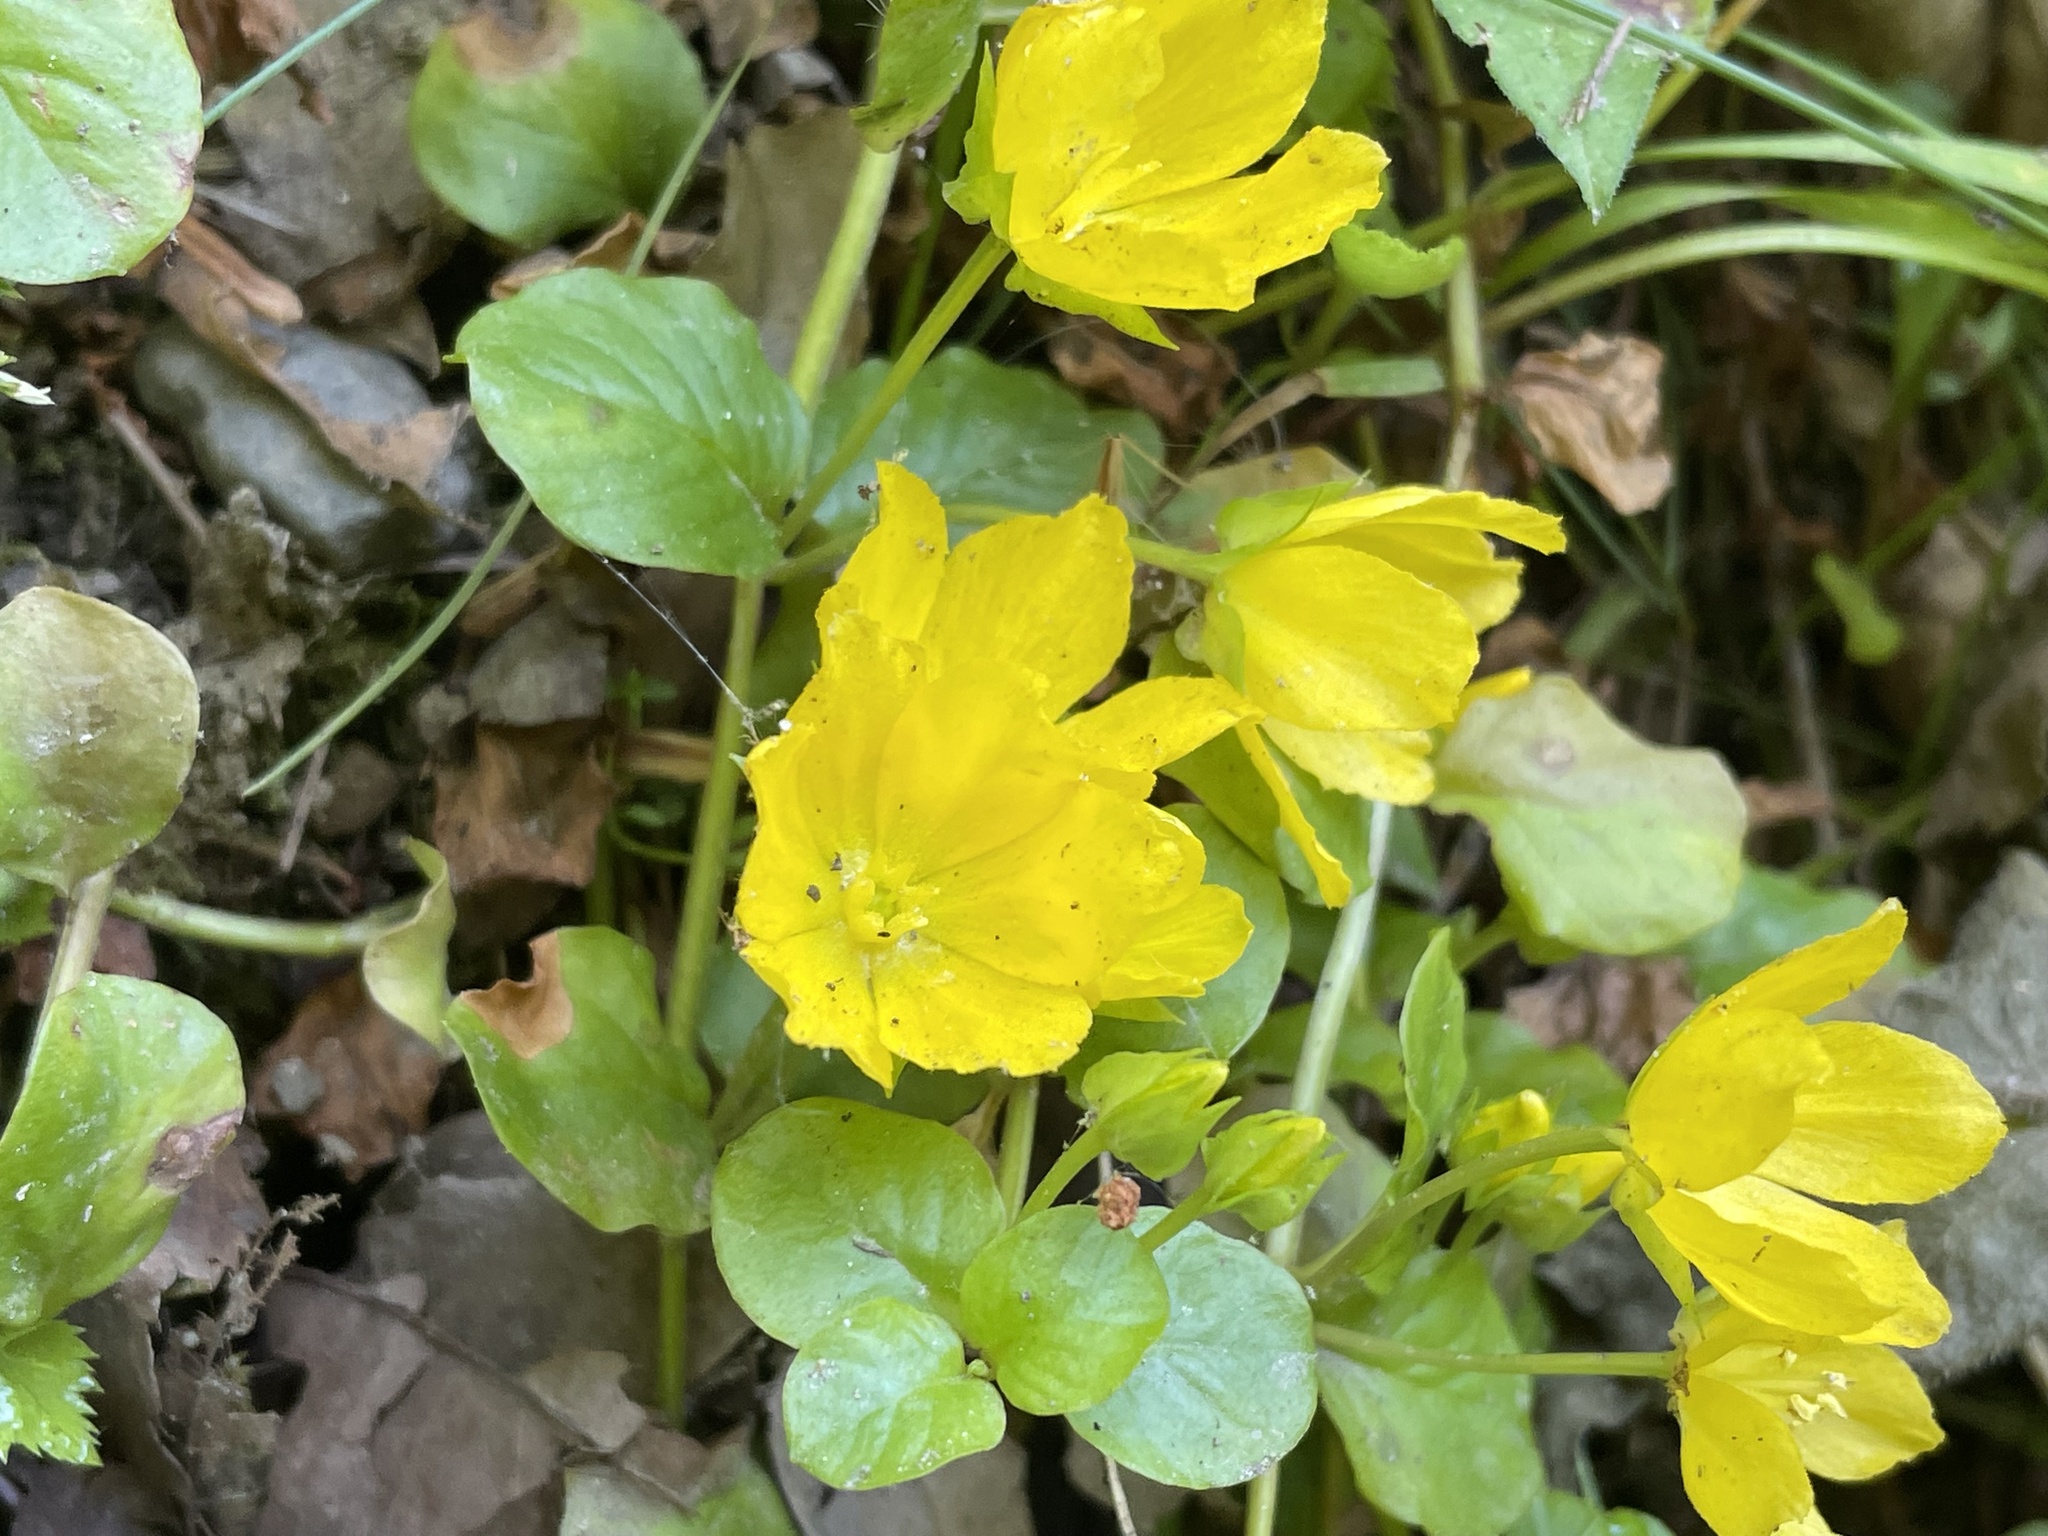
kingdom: Plantae
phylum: Tracheophyta
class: Magnoliopsida
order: Ericales
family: Primulaceae
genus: Lysimachia
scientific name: Lysimachia nummularia
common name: Moneywort
